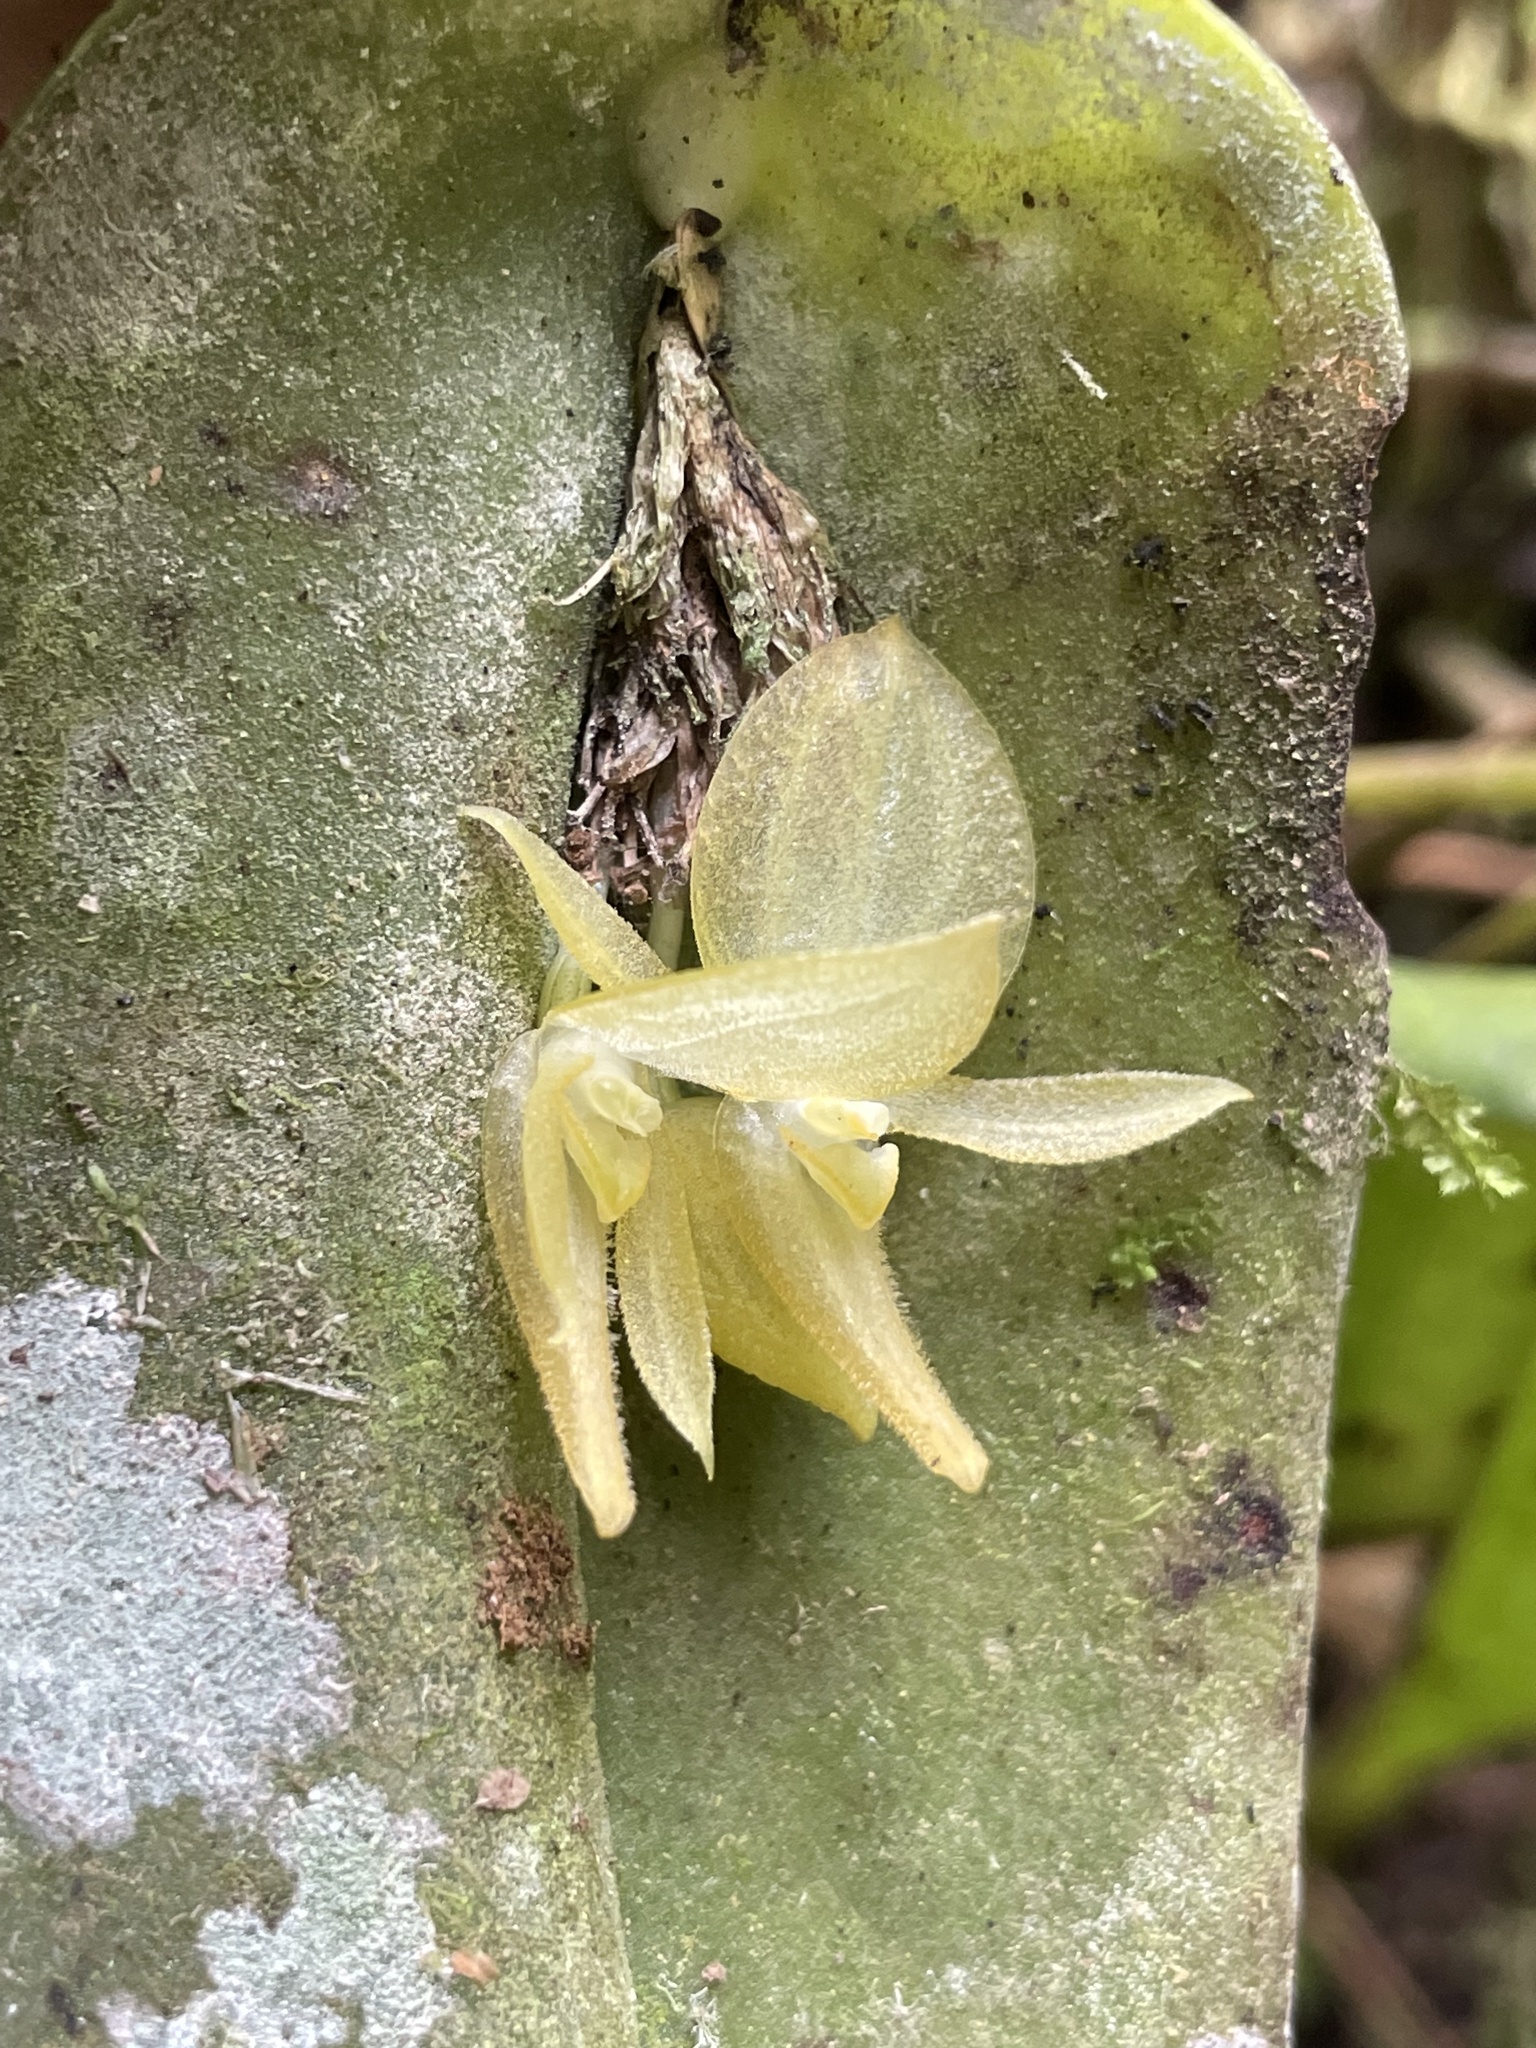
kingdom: Plantae
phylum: Tracheophyta
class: Liliopsida
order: Asparagales
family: Orchidaceae
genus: Pleurothallis
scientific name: Pleurothallis apopsis
